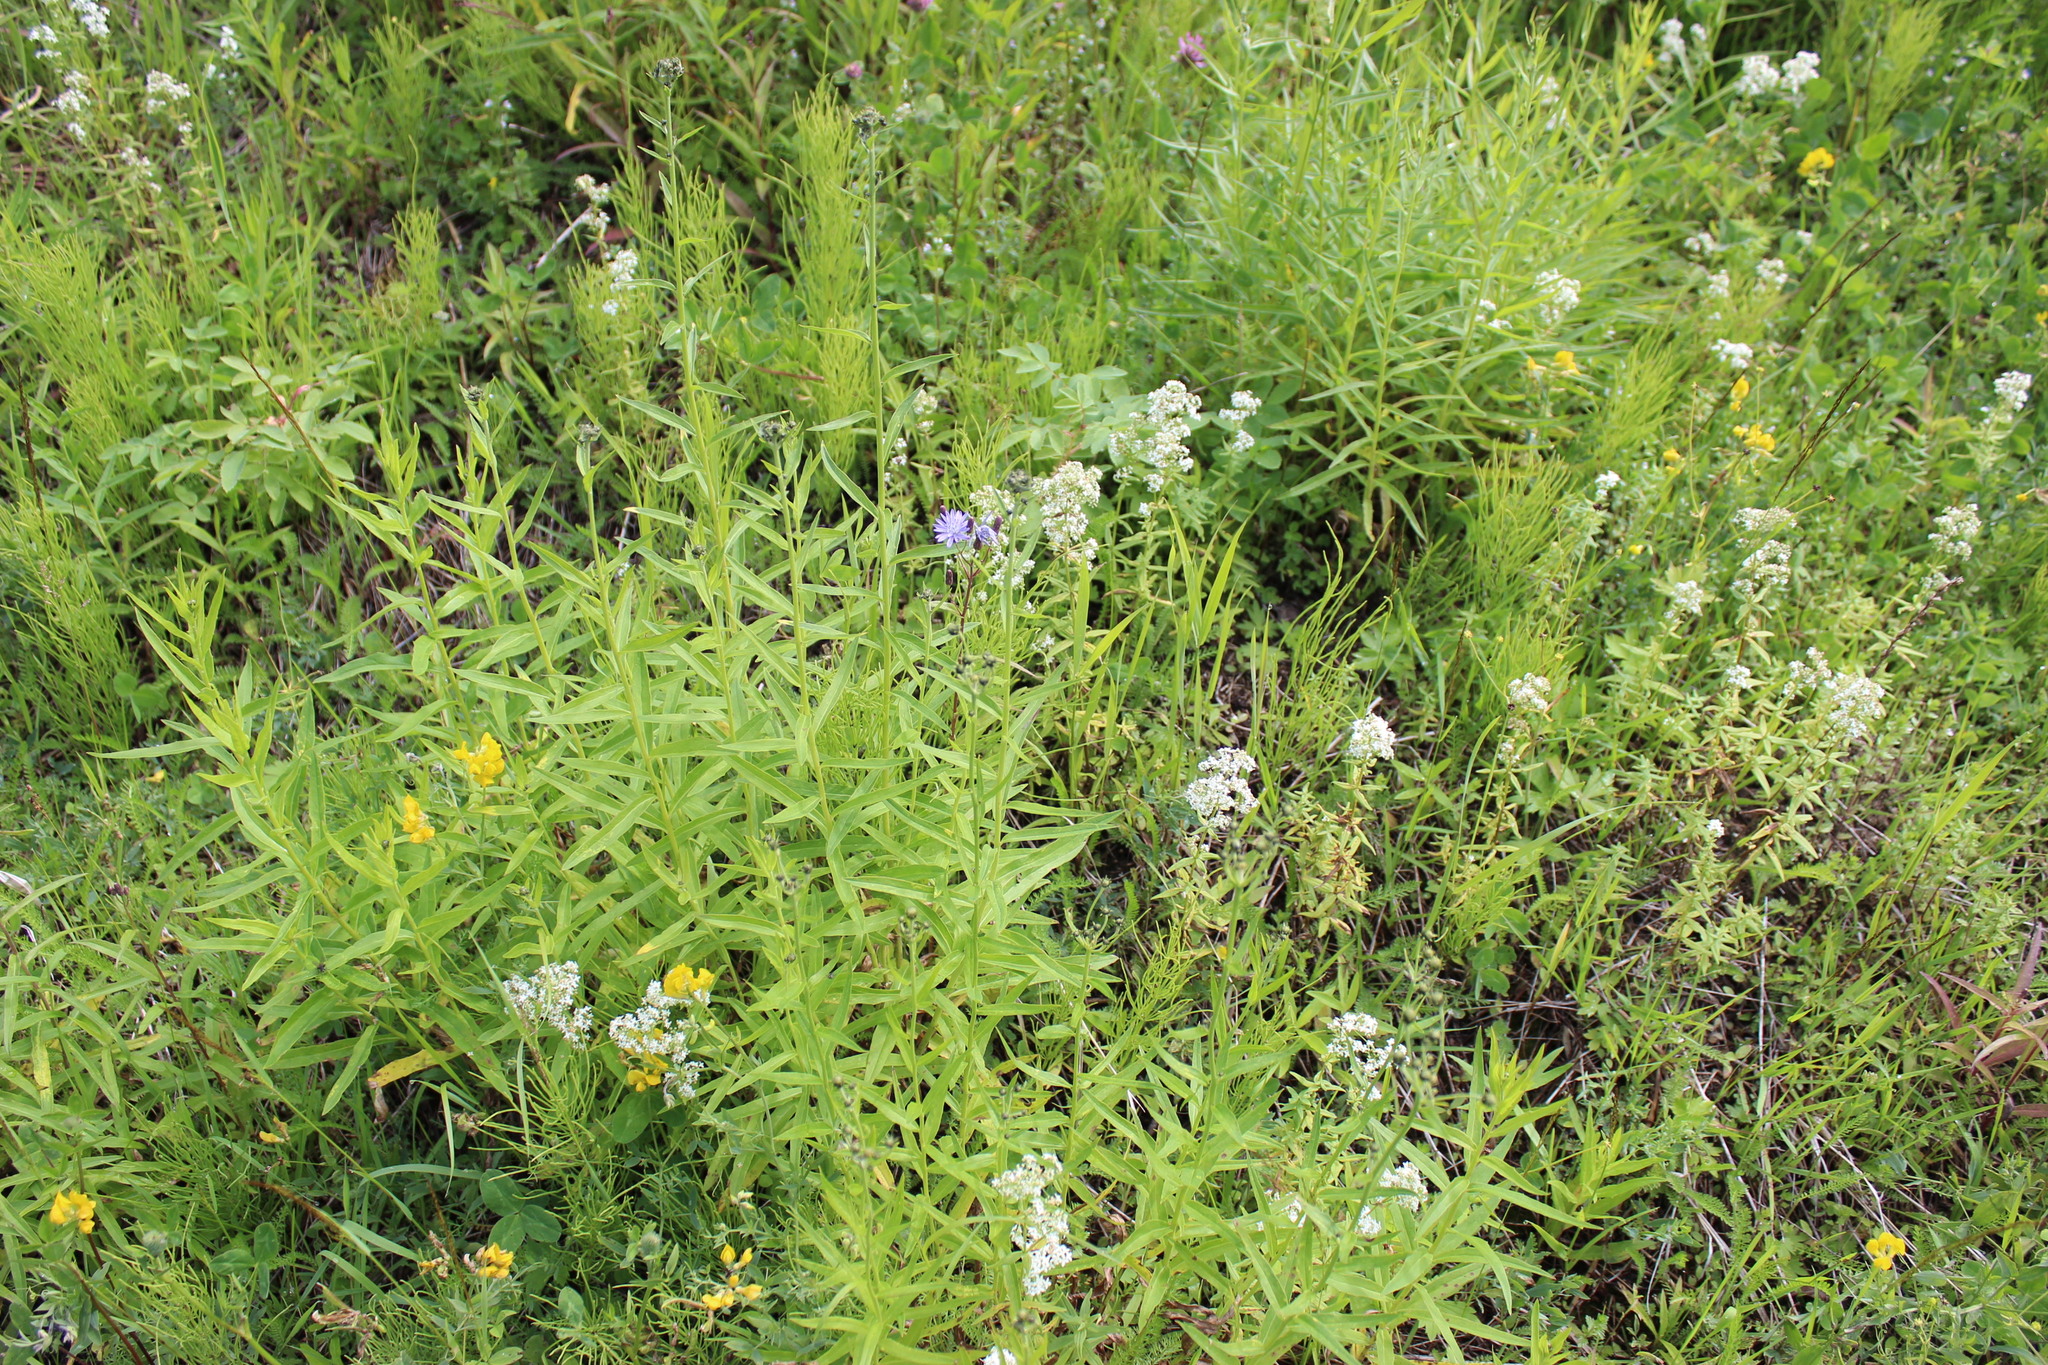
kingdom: Plantae
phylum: Tracheophyta
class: Magnoliopsida
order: Gentianales
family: Rubiaceae
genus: Galium
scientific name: Galium boreale
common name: Northern bedstraw
